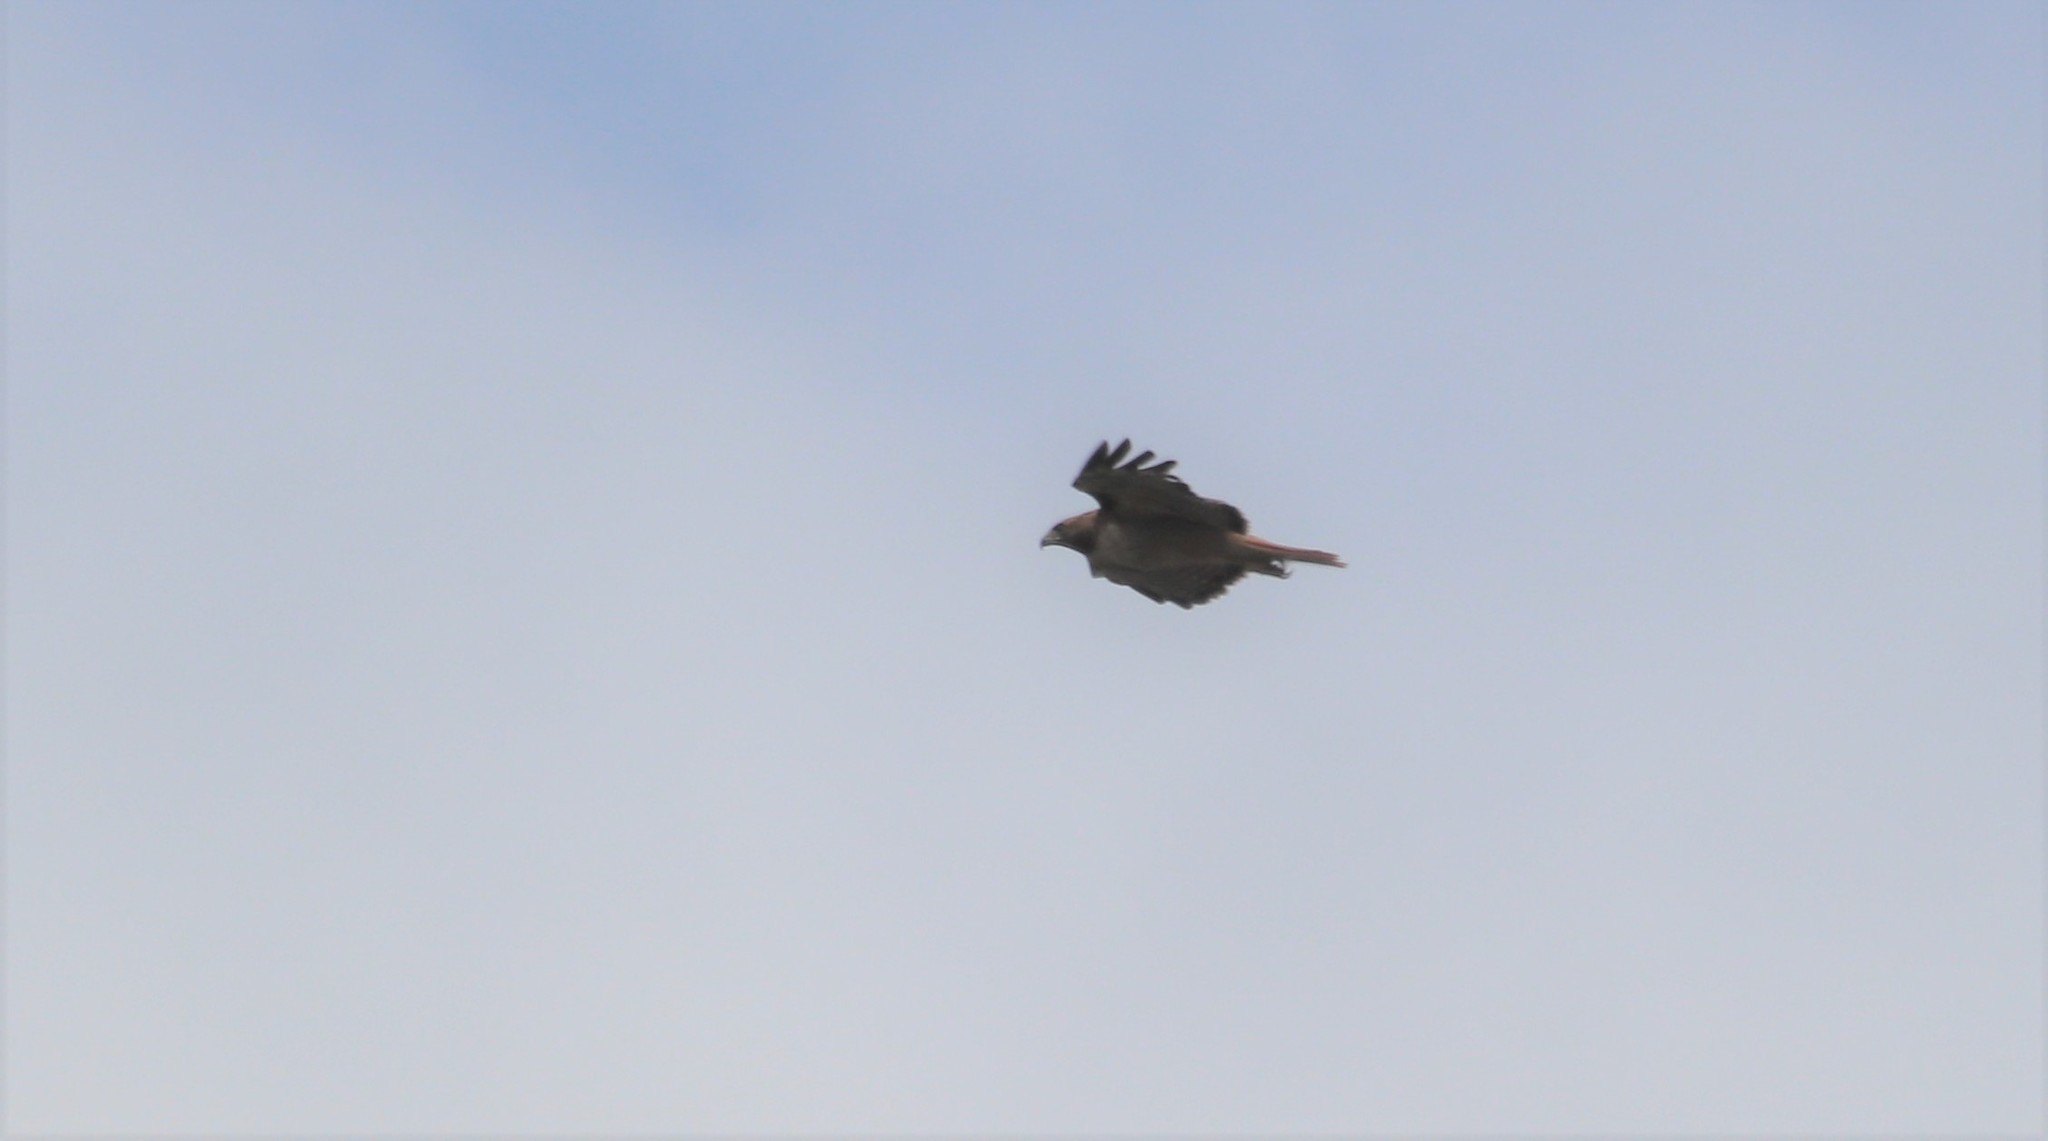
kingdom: Animalia
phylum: Chordata
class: Aves
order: Accipitriformes
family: Accipitridae
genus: Buteo
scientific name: Buteo jamaicensis
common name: Red-tailed hawk
